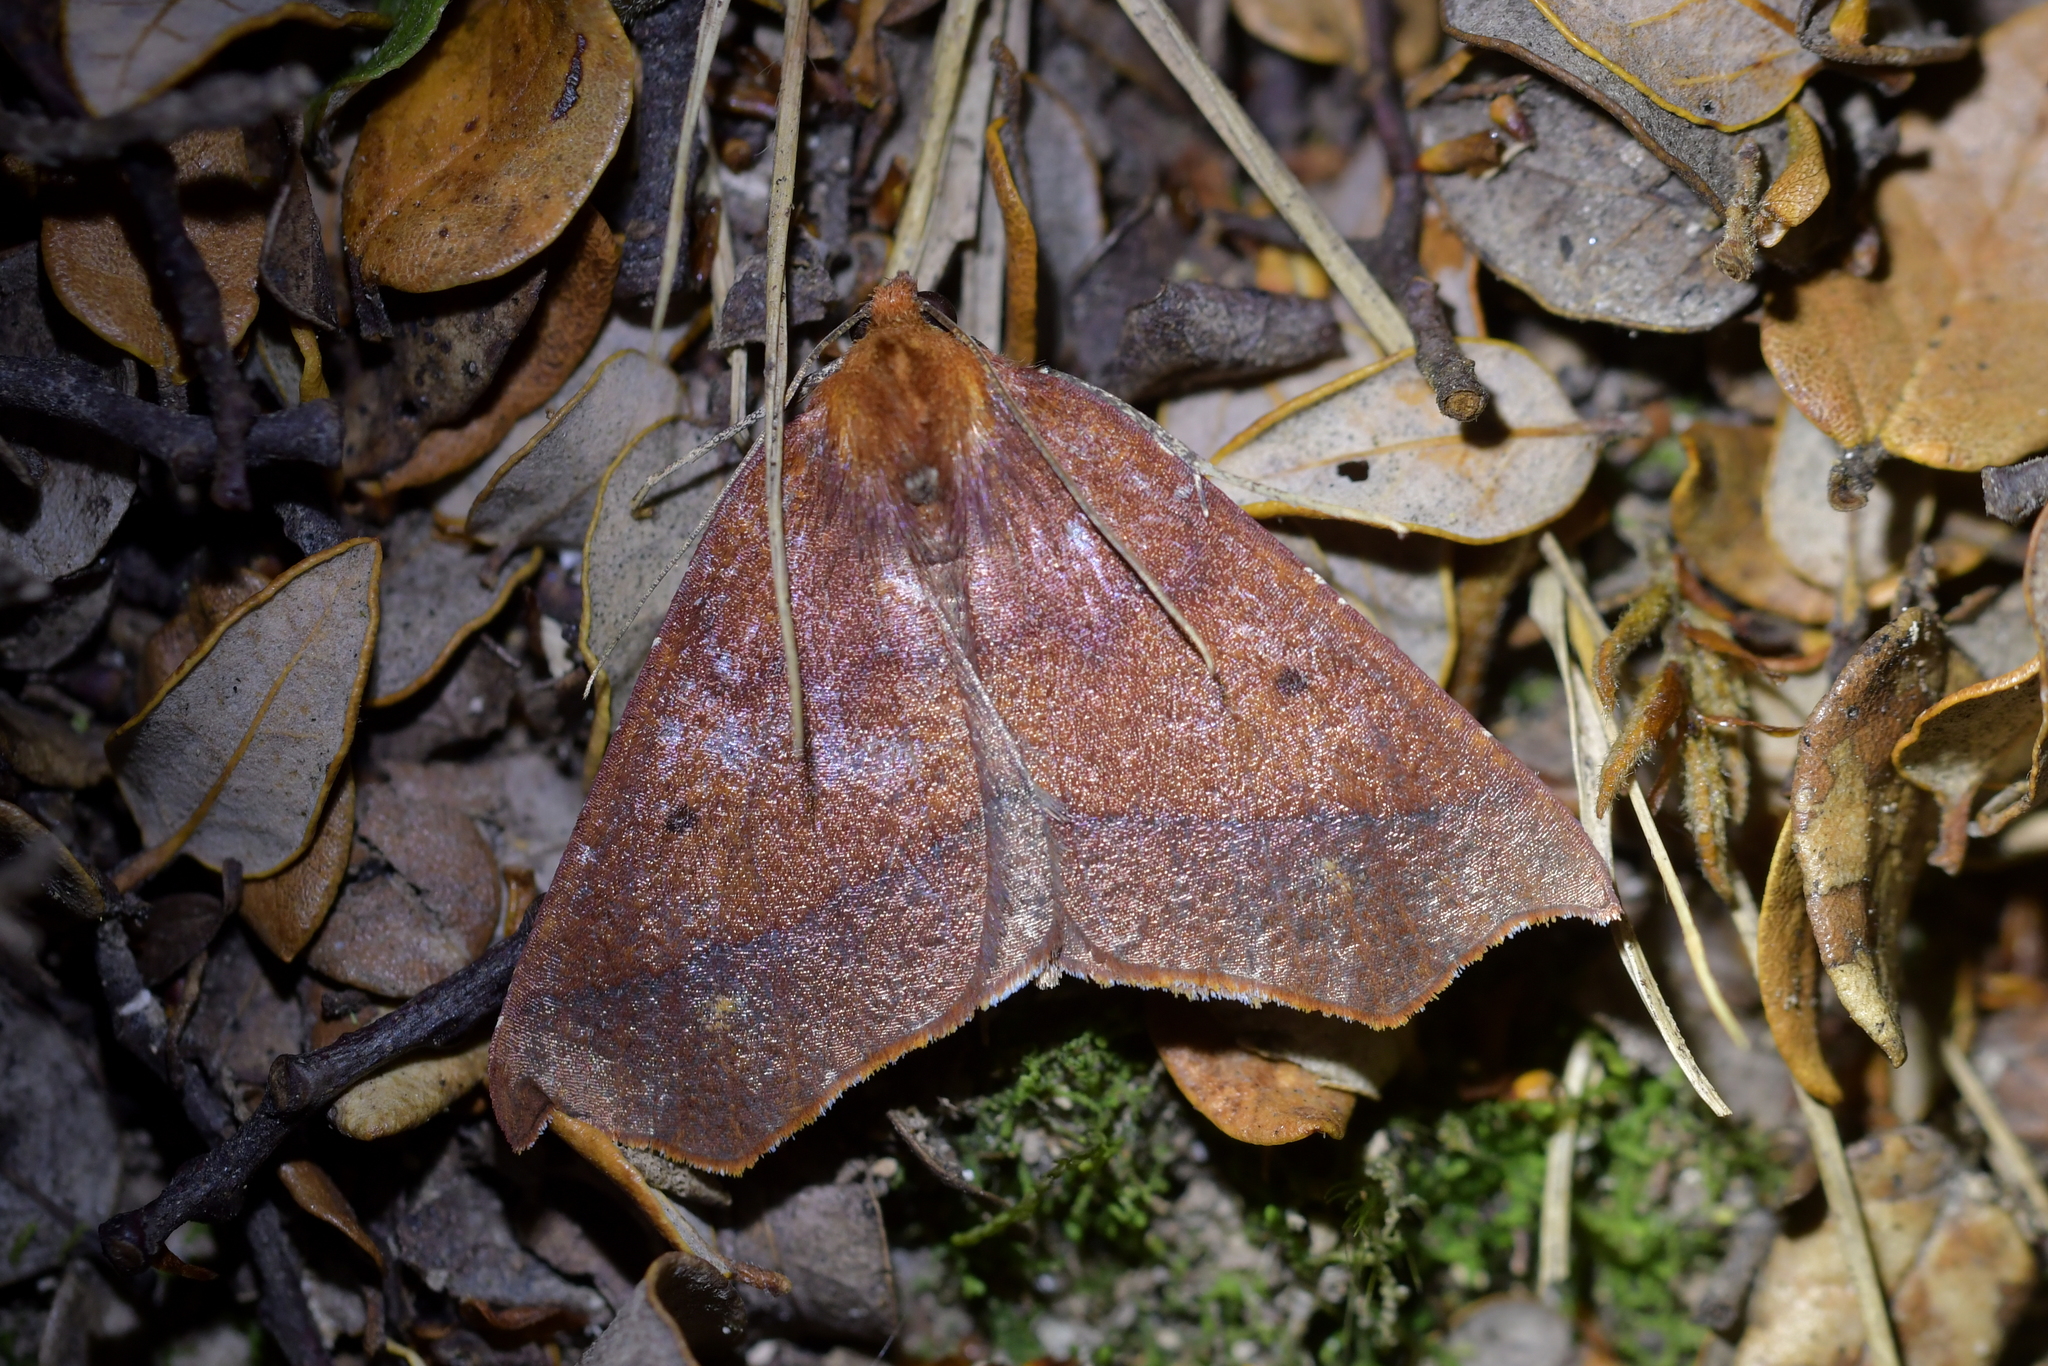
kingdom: Animalia
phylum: Arthropoda
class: Insecta
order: Lepidoptera
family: Geometridae
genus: Ischalis
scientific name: Ischalis nelsonaria
